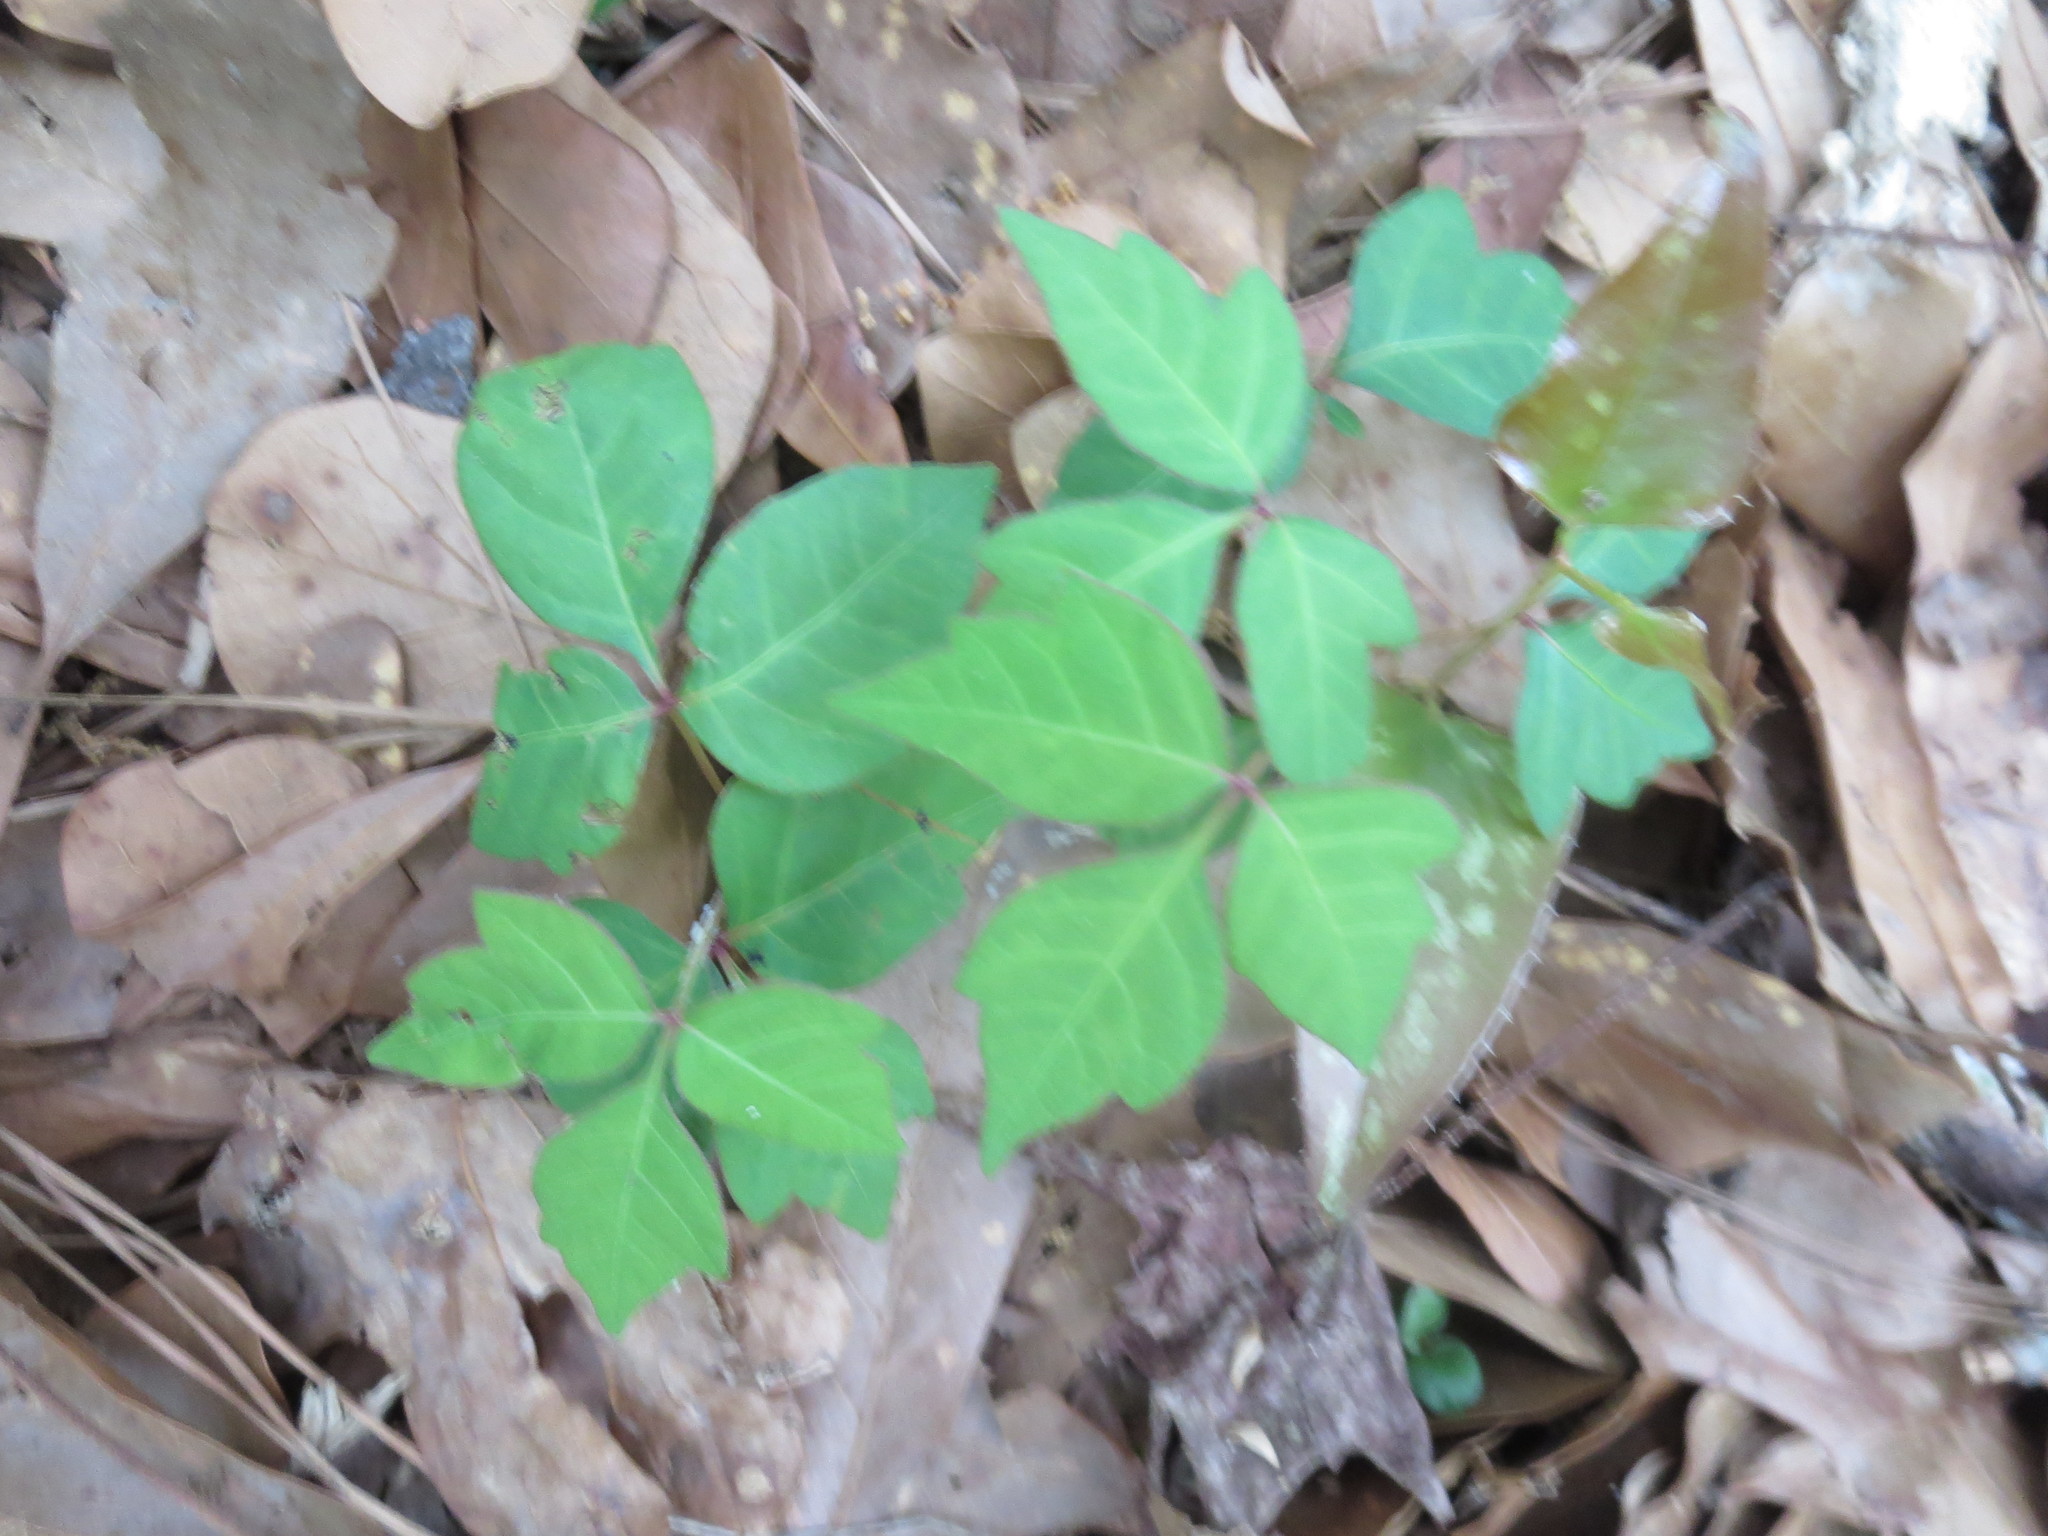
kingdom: Plantae
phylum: Tracheophyta
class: Magnoliopsida
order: Sapindales
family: Anacardiaceae
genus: Toxicodendron
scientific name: Toxicodendron radicans
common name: Poison ivy
